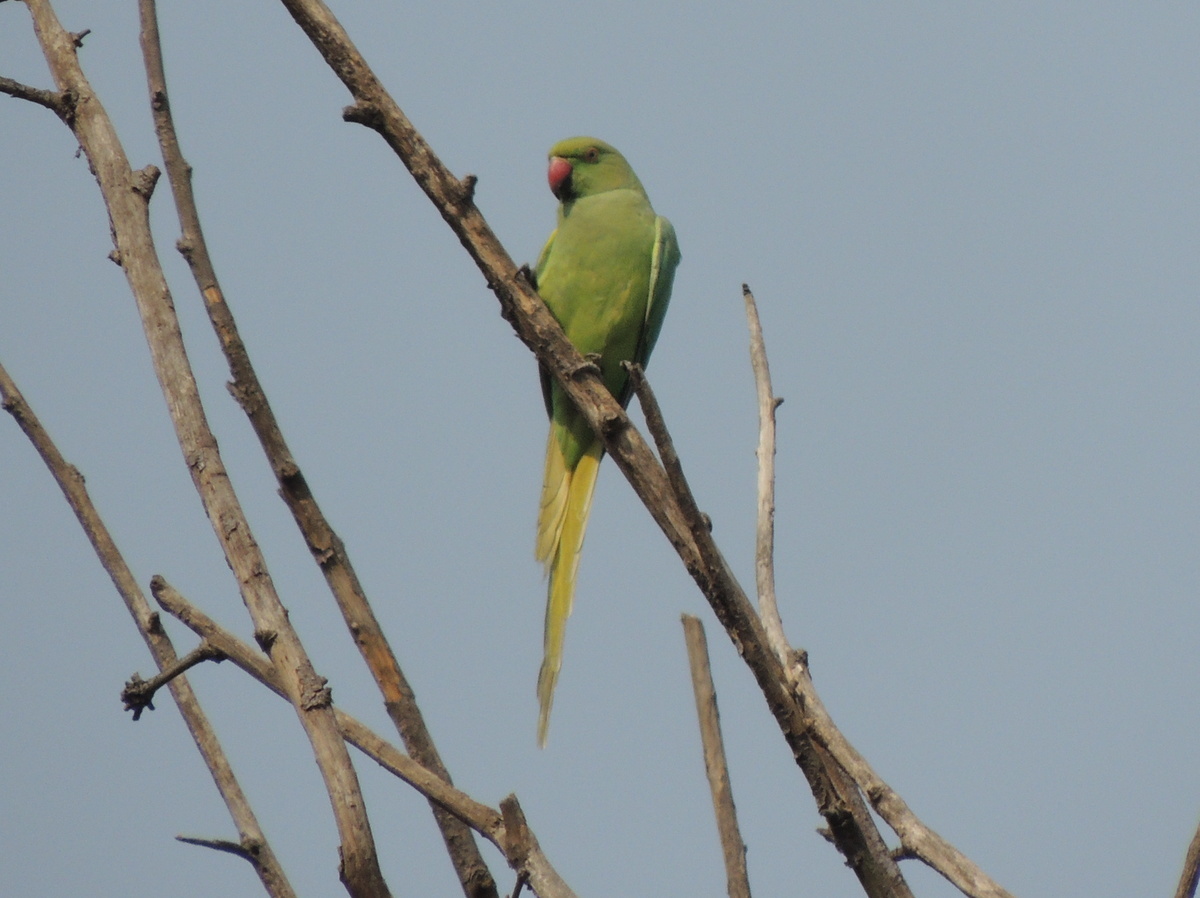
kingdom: Animalia
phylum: Chordata
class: Aves
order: Psittaciformes
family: Psittacidae
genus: Psittacula
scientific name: Psittacula krameri
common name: Rose-ringed parakeet
